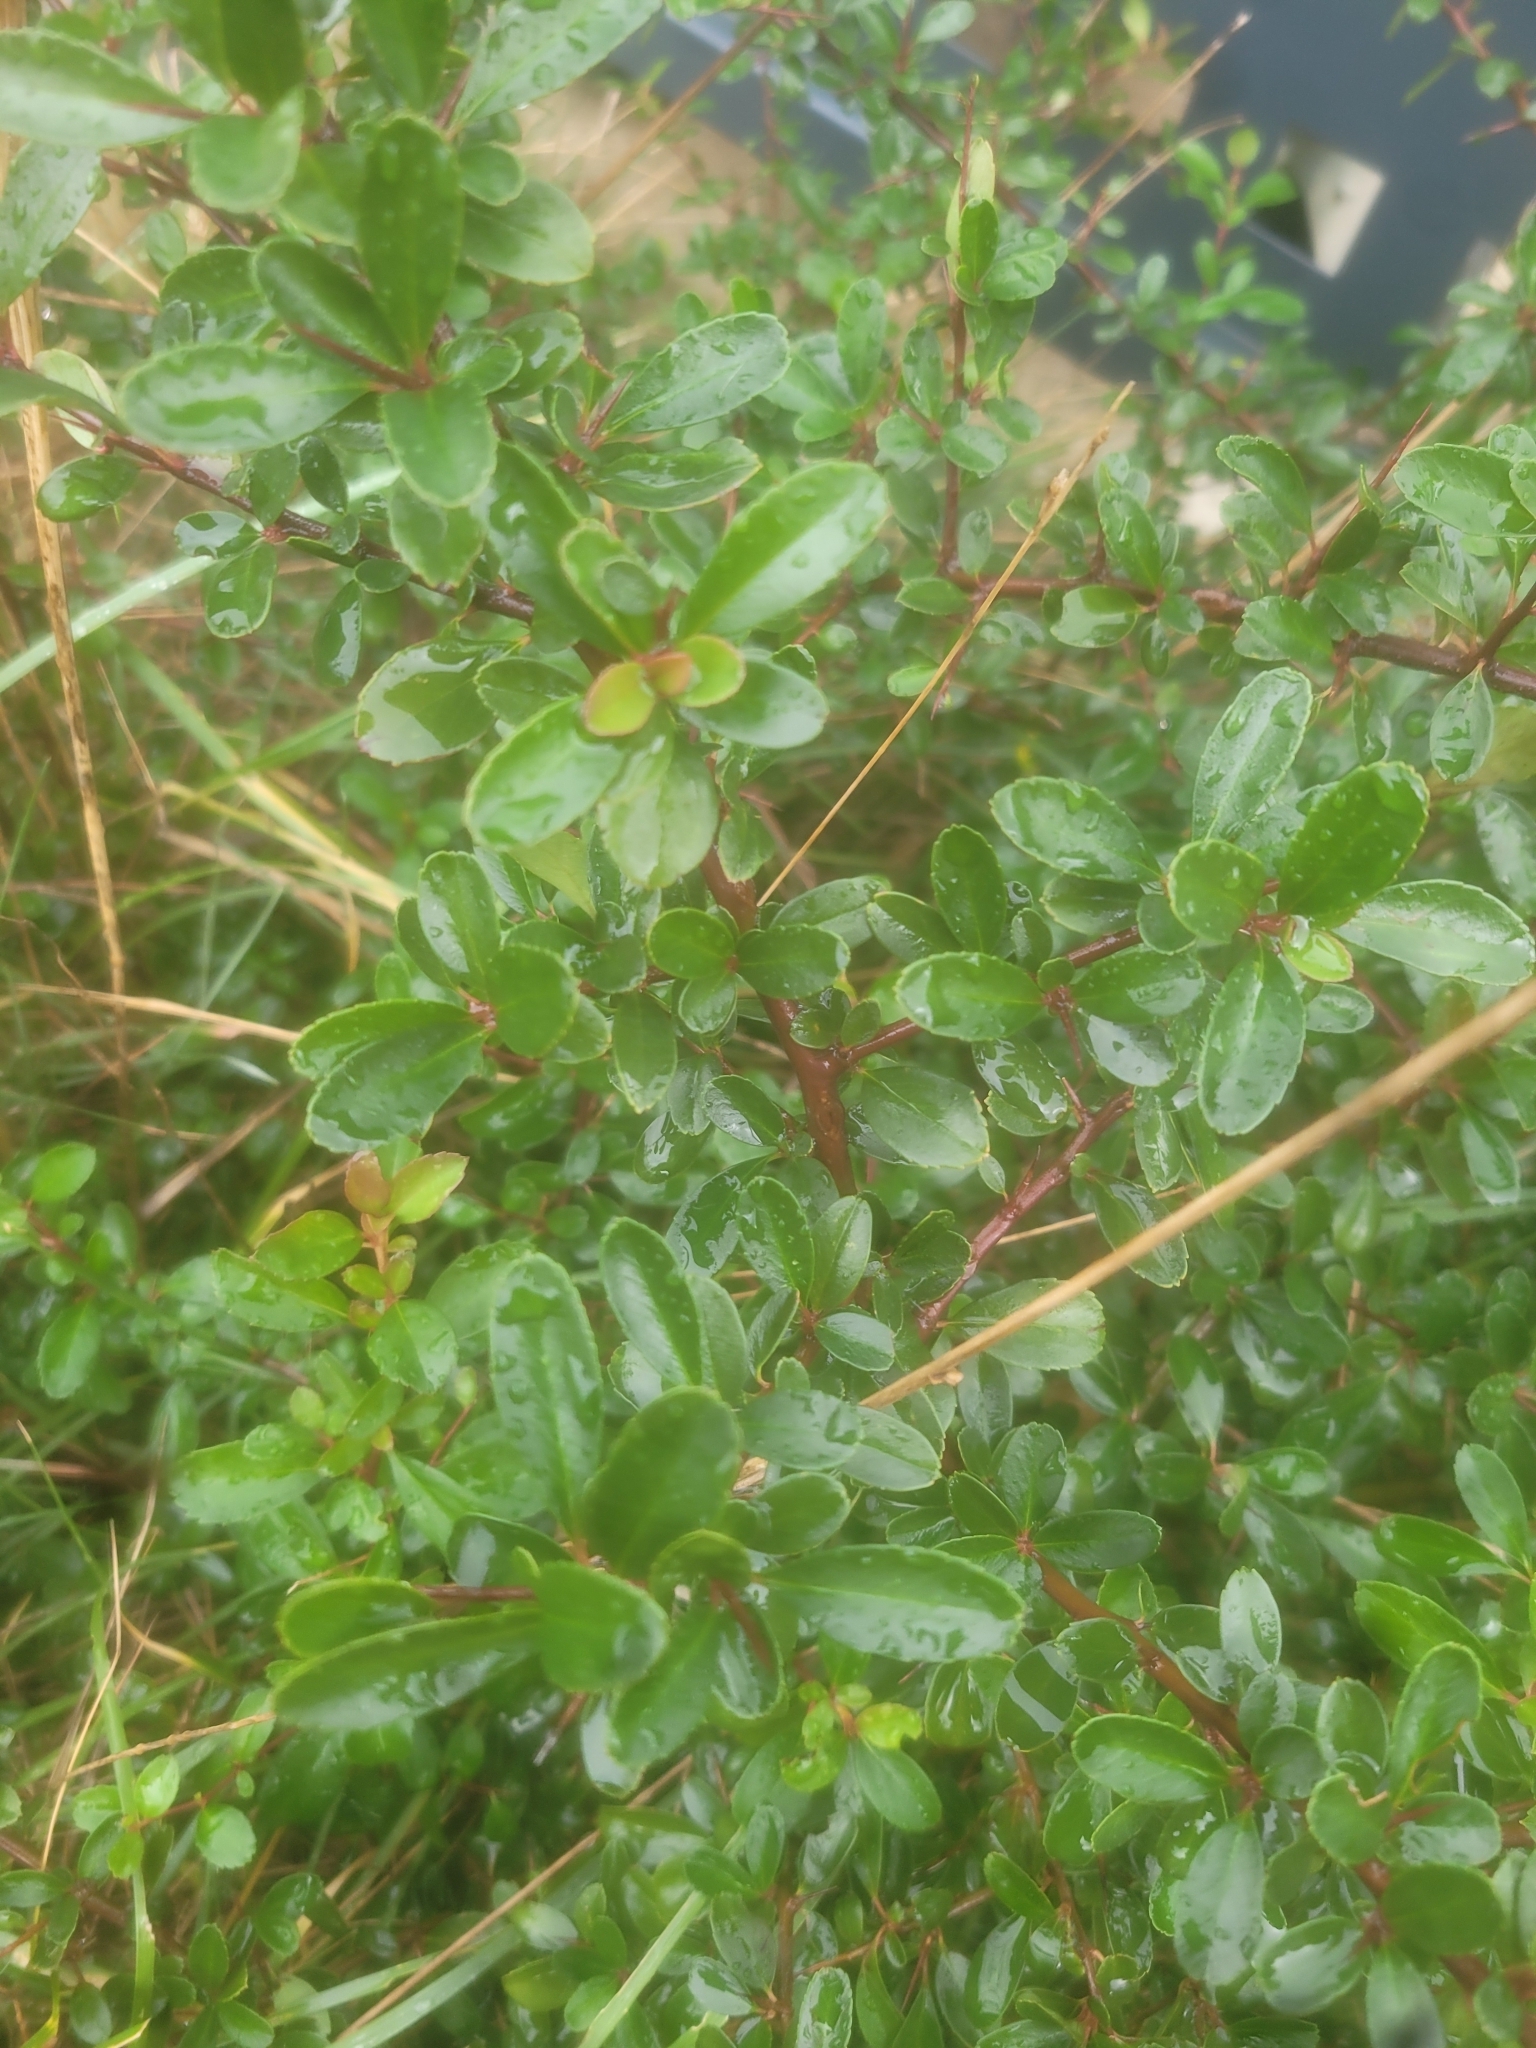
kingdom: Plantae
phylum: Tracheophyta
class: Magnoliopsida
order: Rosales
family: Rosaceae
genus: Pyracantha
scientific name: Pyracantha coccinea
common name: Firethorn
